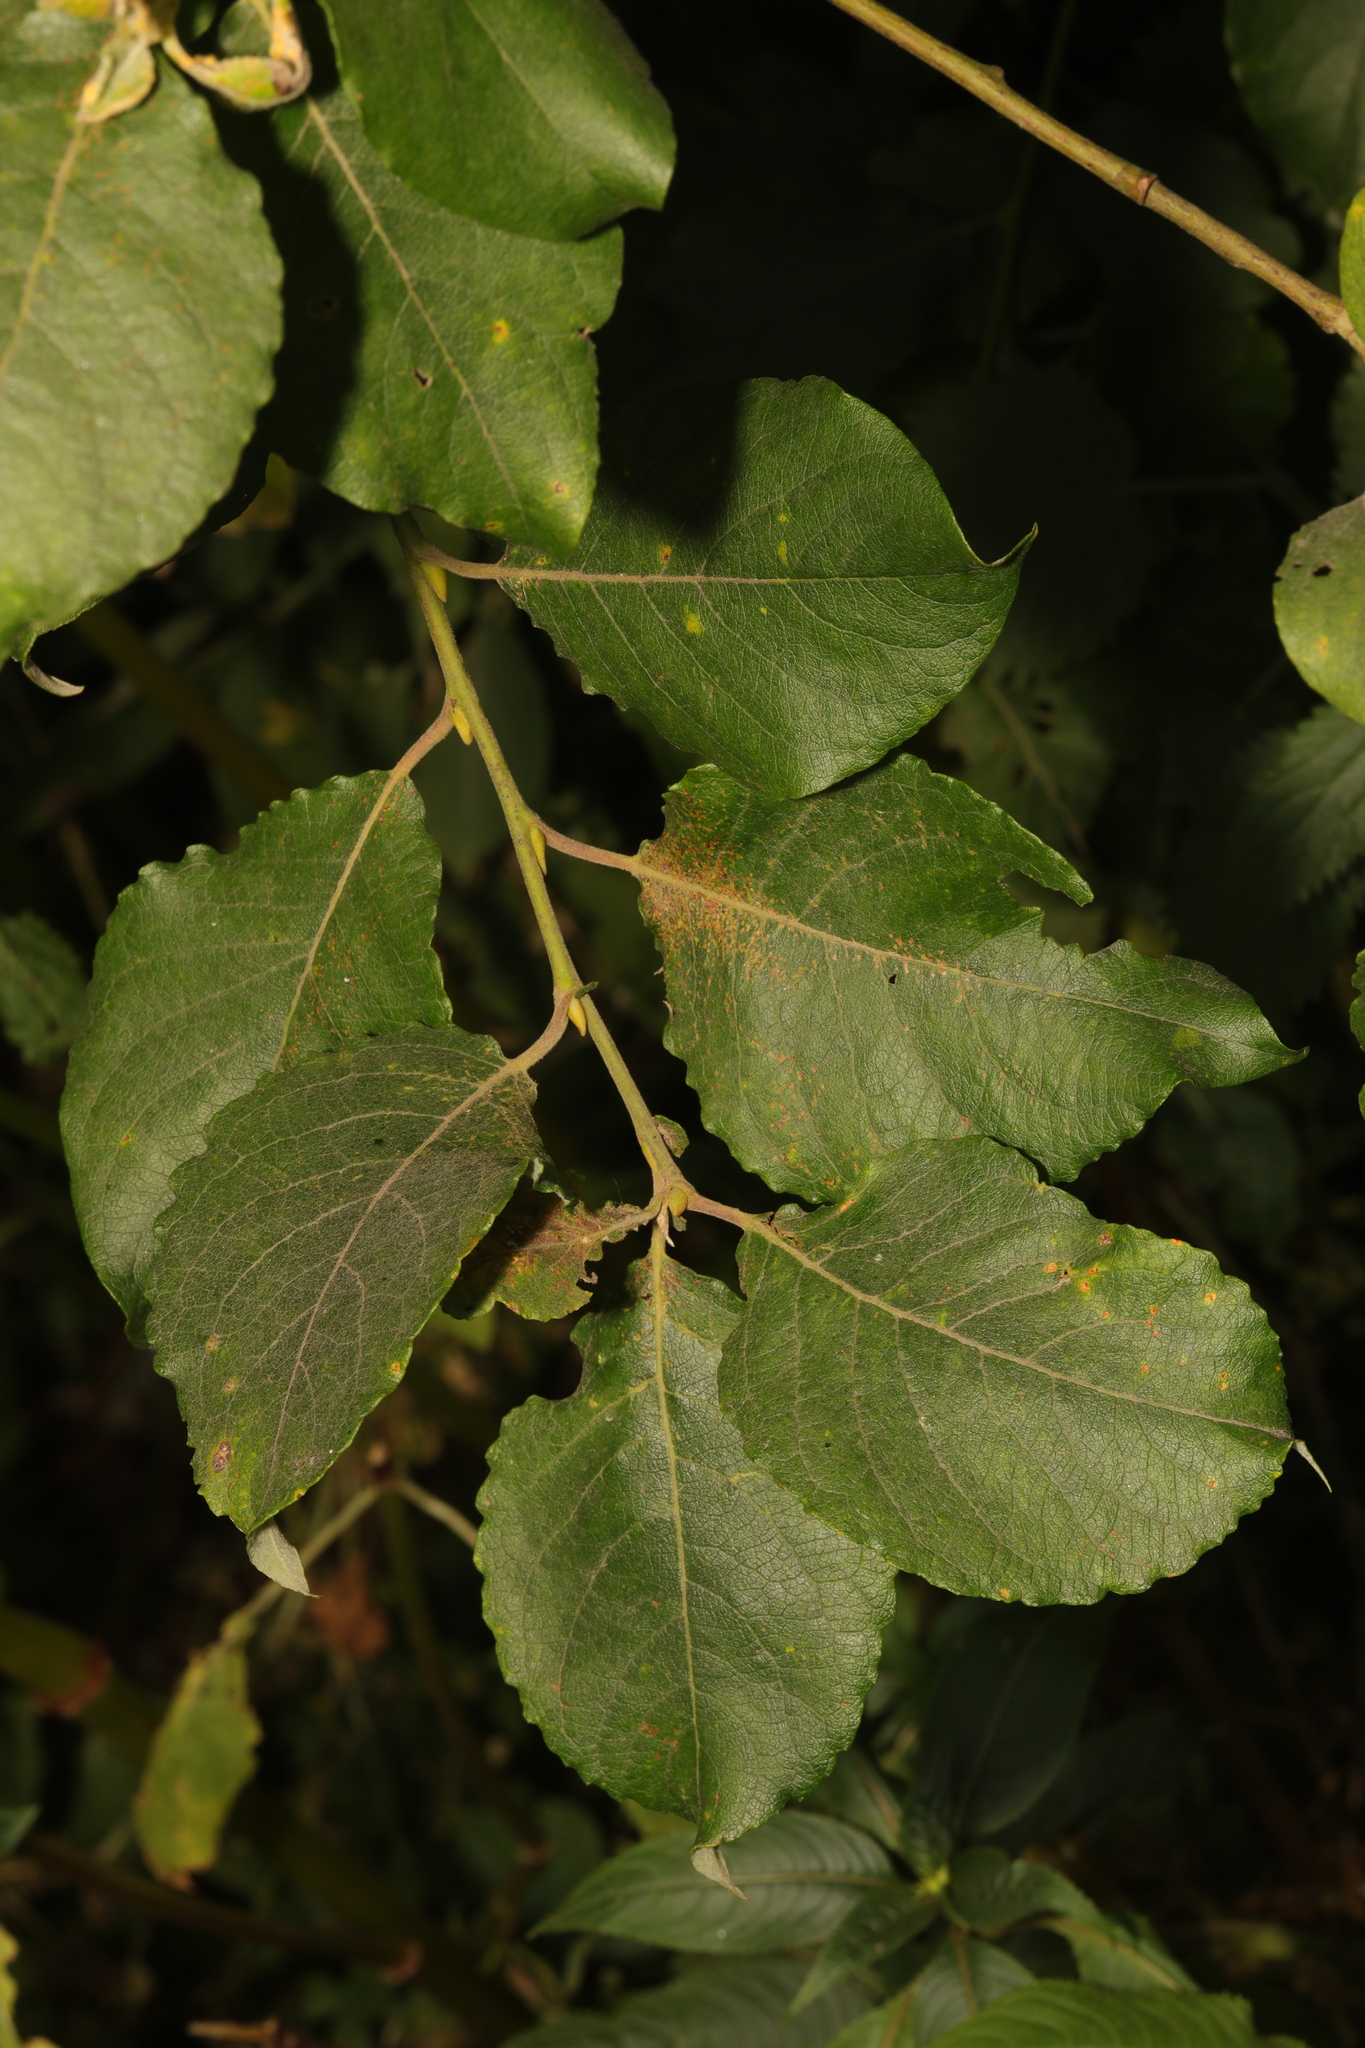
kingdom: Plantae
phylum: Tracheophyta
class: Magnoliopsida
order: Malpighiales
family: Salicaceae
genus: Salix
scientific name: Salix caprea
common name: Goat willow
